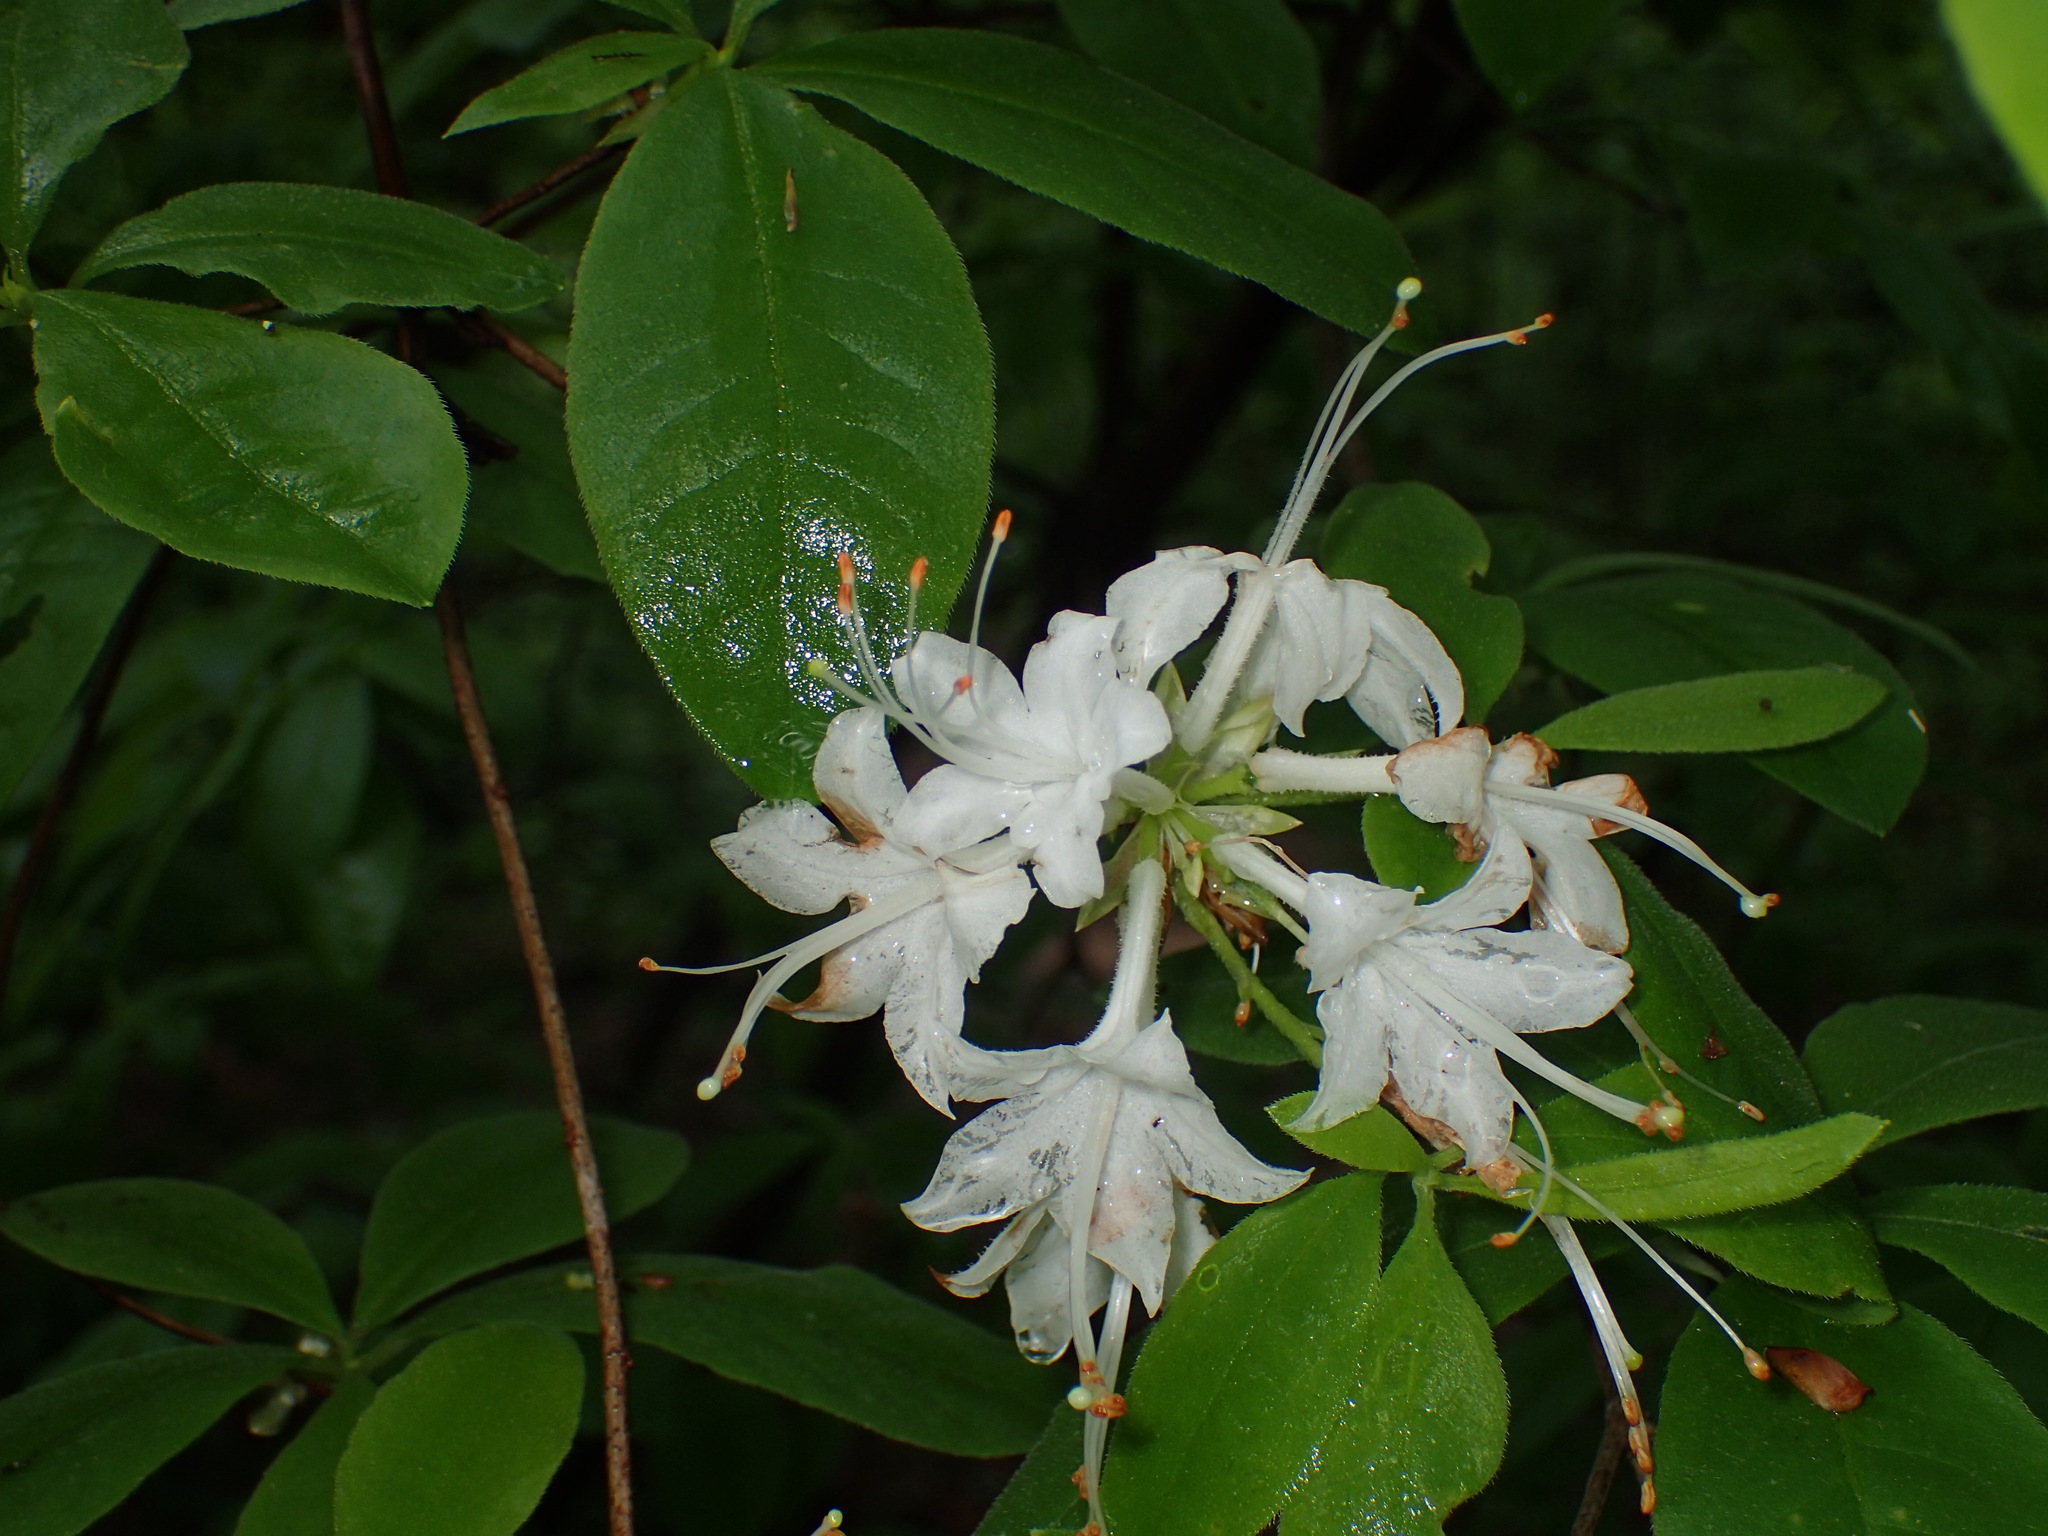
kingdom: Plantae
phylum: Tracheophyta
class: Magnoliopsida
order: Ericales
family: Ericaceae
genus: Rhododendron
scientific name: Rhododendron alabamense
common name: Alabama azalea
